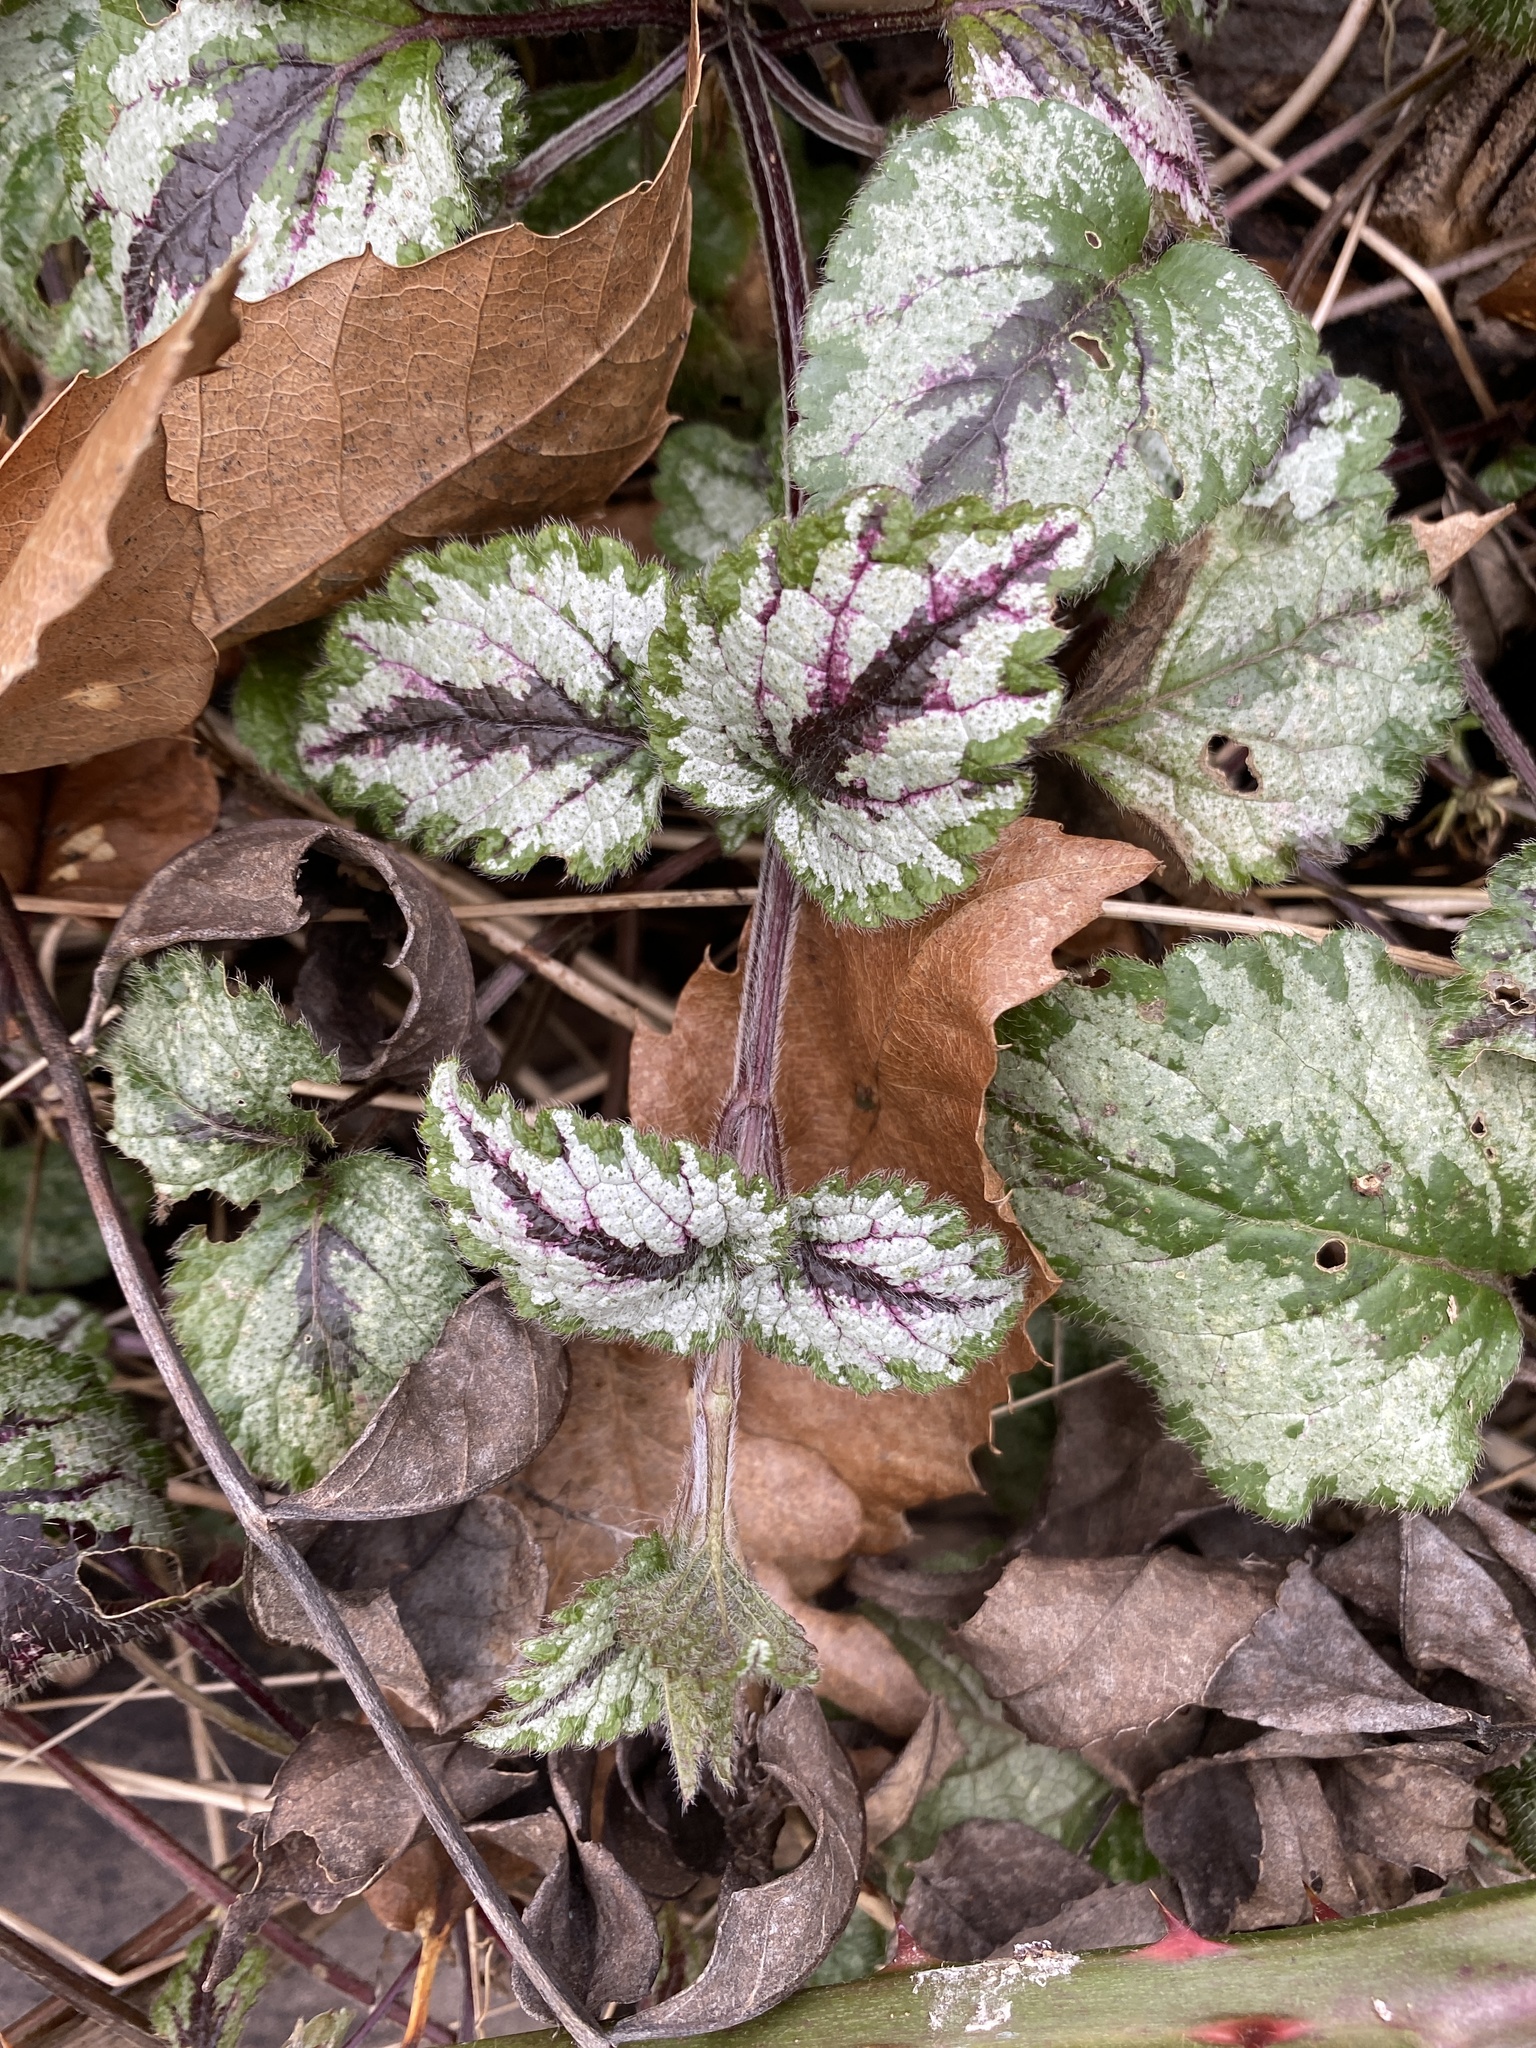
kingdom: Plantae
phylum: Tracheophyta
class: Magnoliopsida
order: Lamiales
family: Lamiaceae
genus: Lamium
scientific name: Lamium galeobdolon
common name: Yellow archangel
